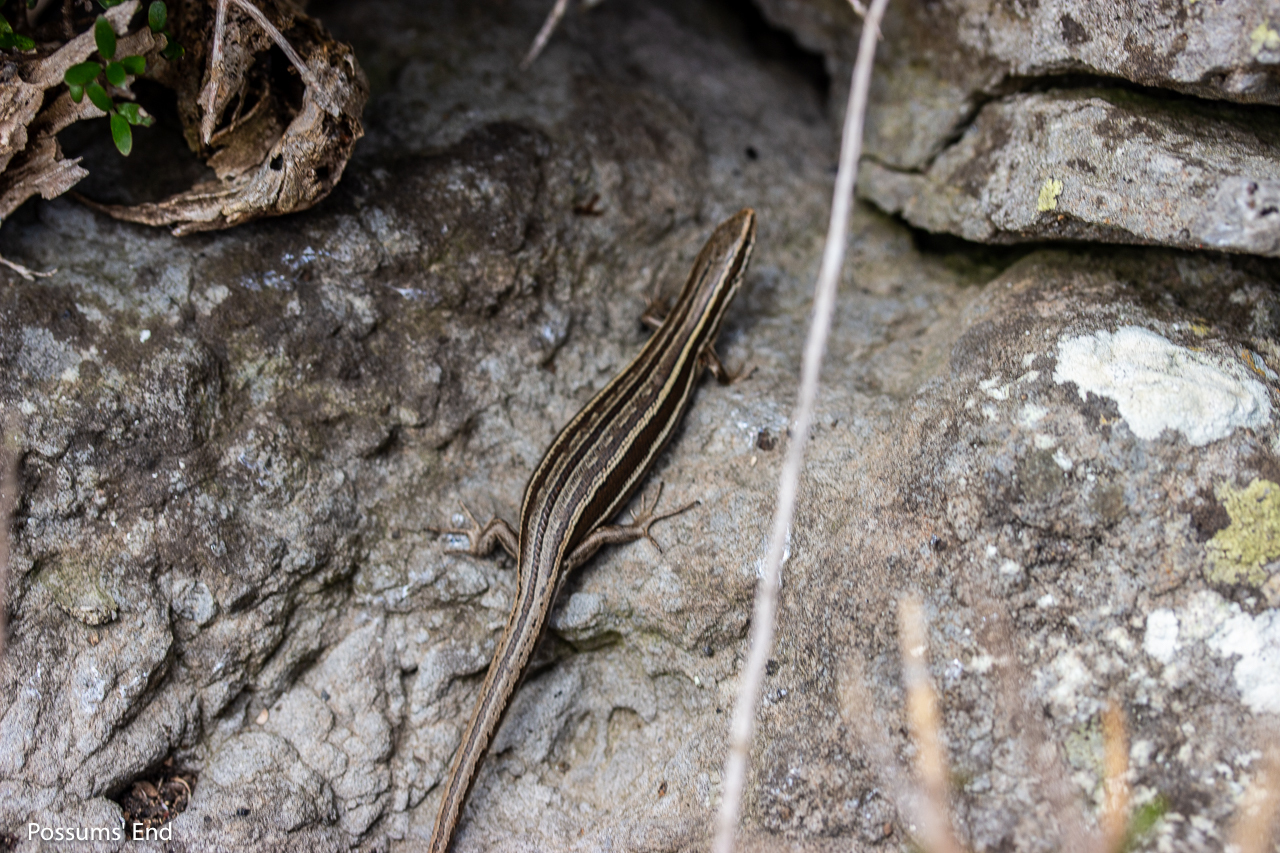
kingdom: Animalia
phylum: Chordata
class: Squamata
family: Scincidae
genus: Oligosoma
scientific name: Oligosoma maccanni
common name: Mccann’s skink
